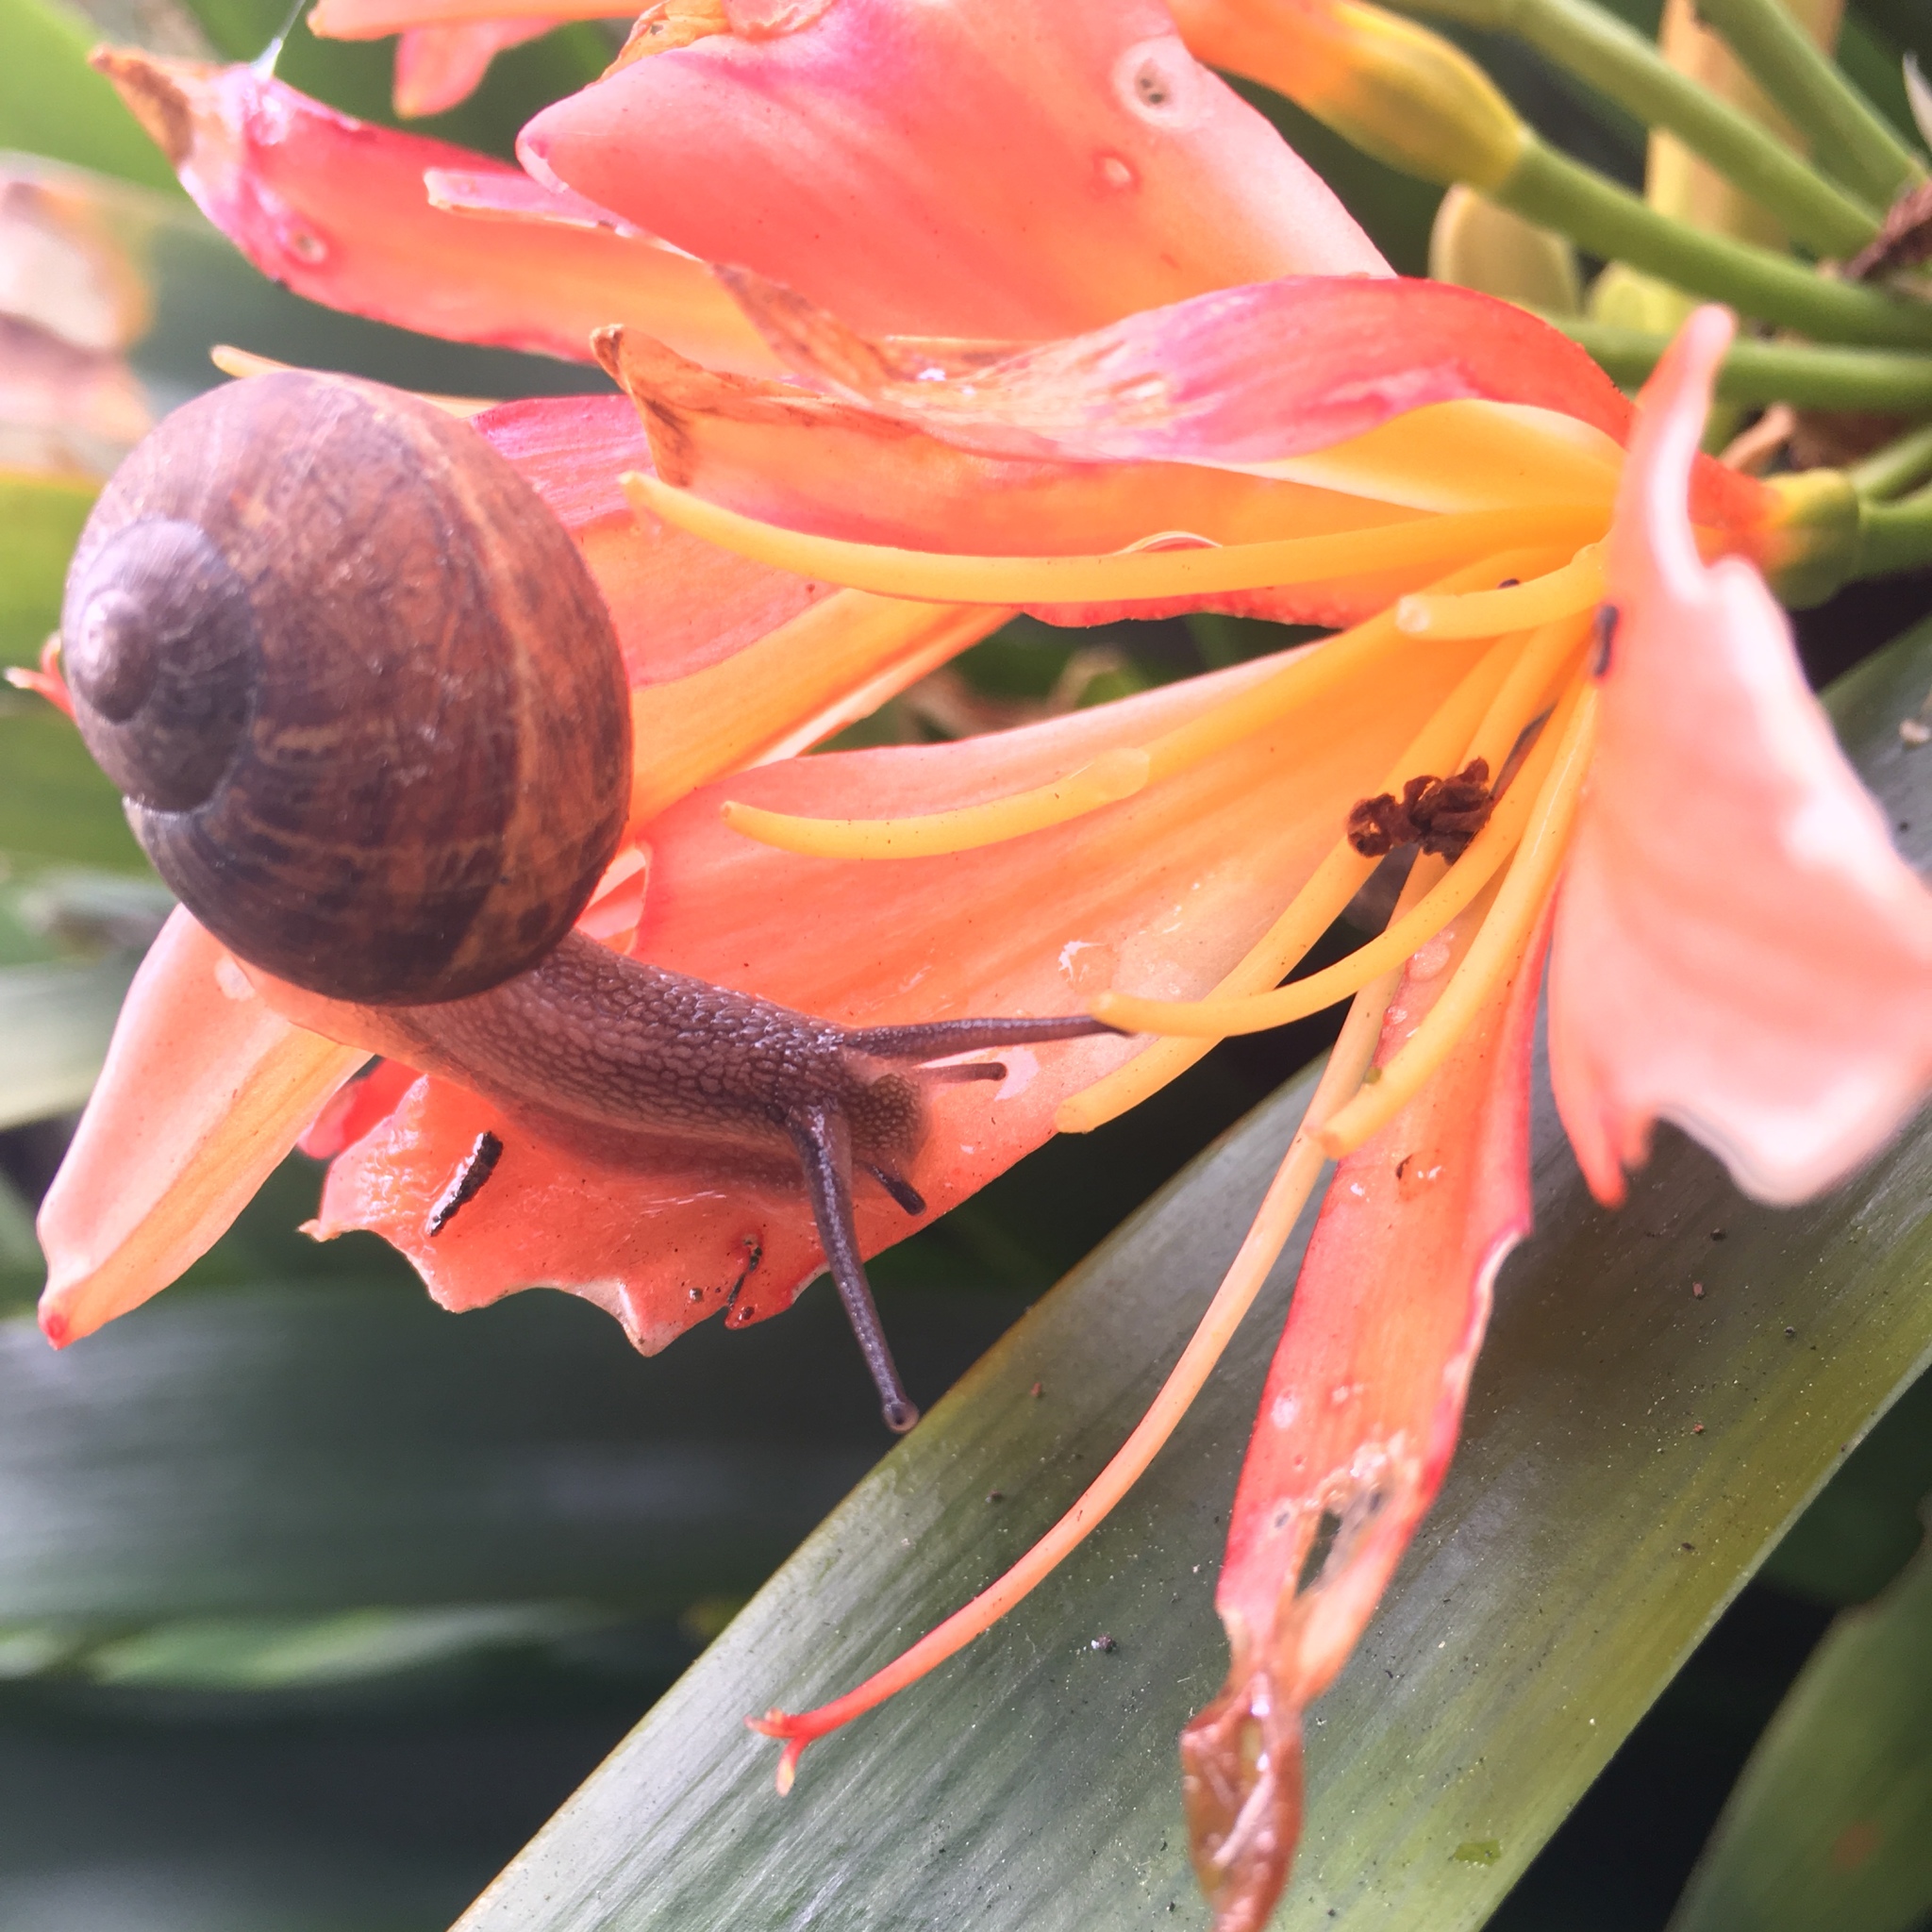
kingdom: Animalia
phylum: Mollusca
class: Gastropoda
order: Stylommatophora
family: Helicidae
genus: Cornu
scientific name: Cornu aspersum
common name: Brown garden snail
